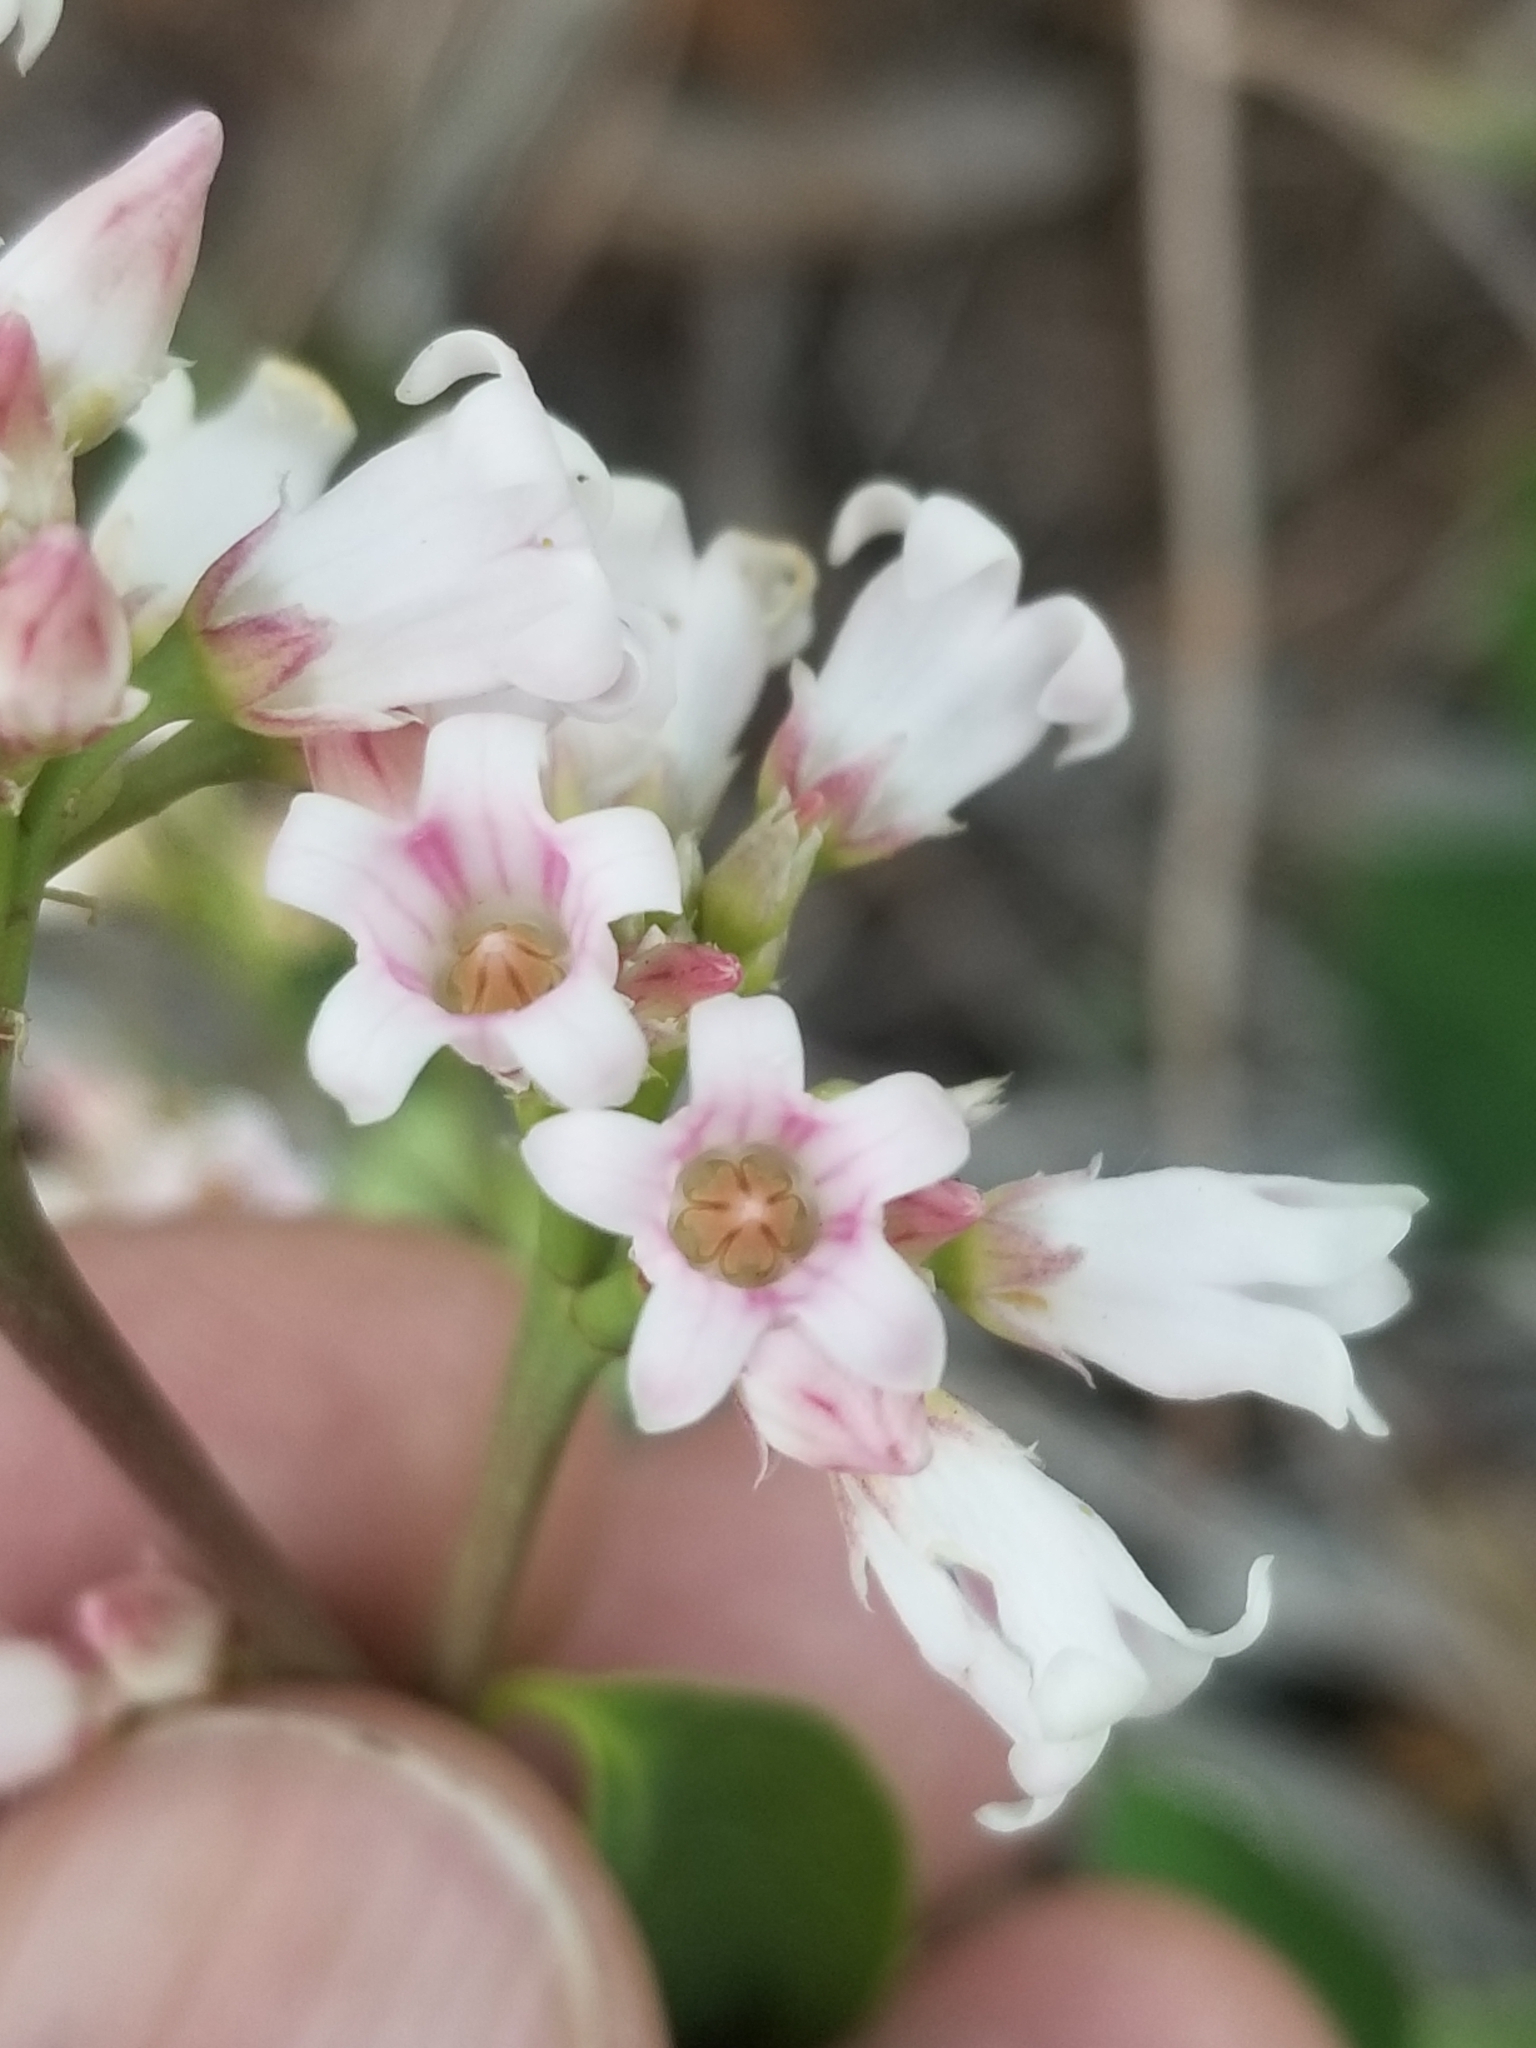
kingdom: Plantae
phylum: Tracheophyta
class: Magnoliopsida
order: Gentianales
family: Apocynaceae
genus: Apocynum
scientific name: Apocynum androsaemifolium
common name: Spreading dogbane
